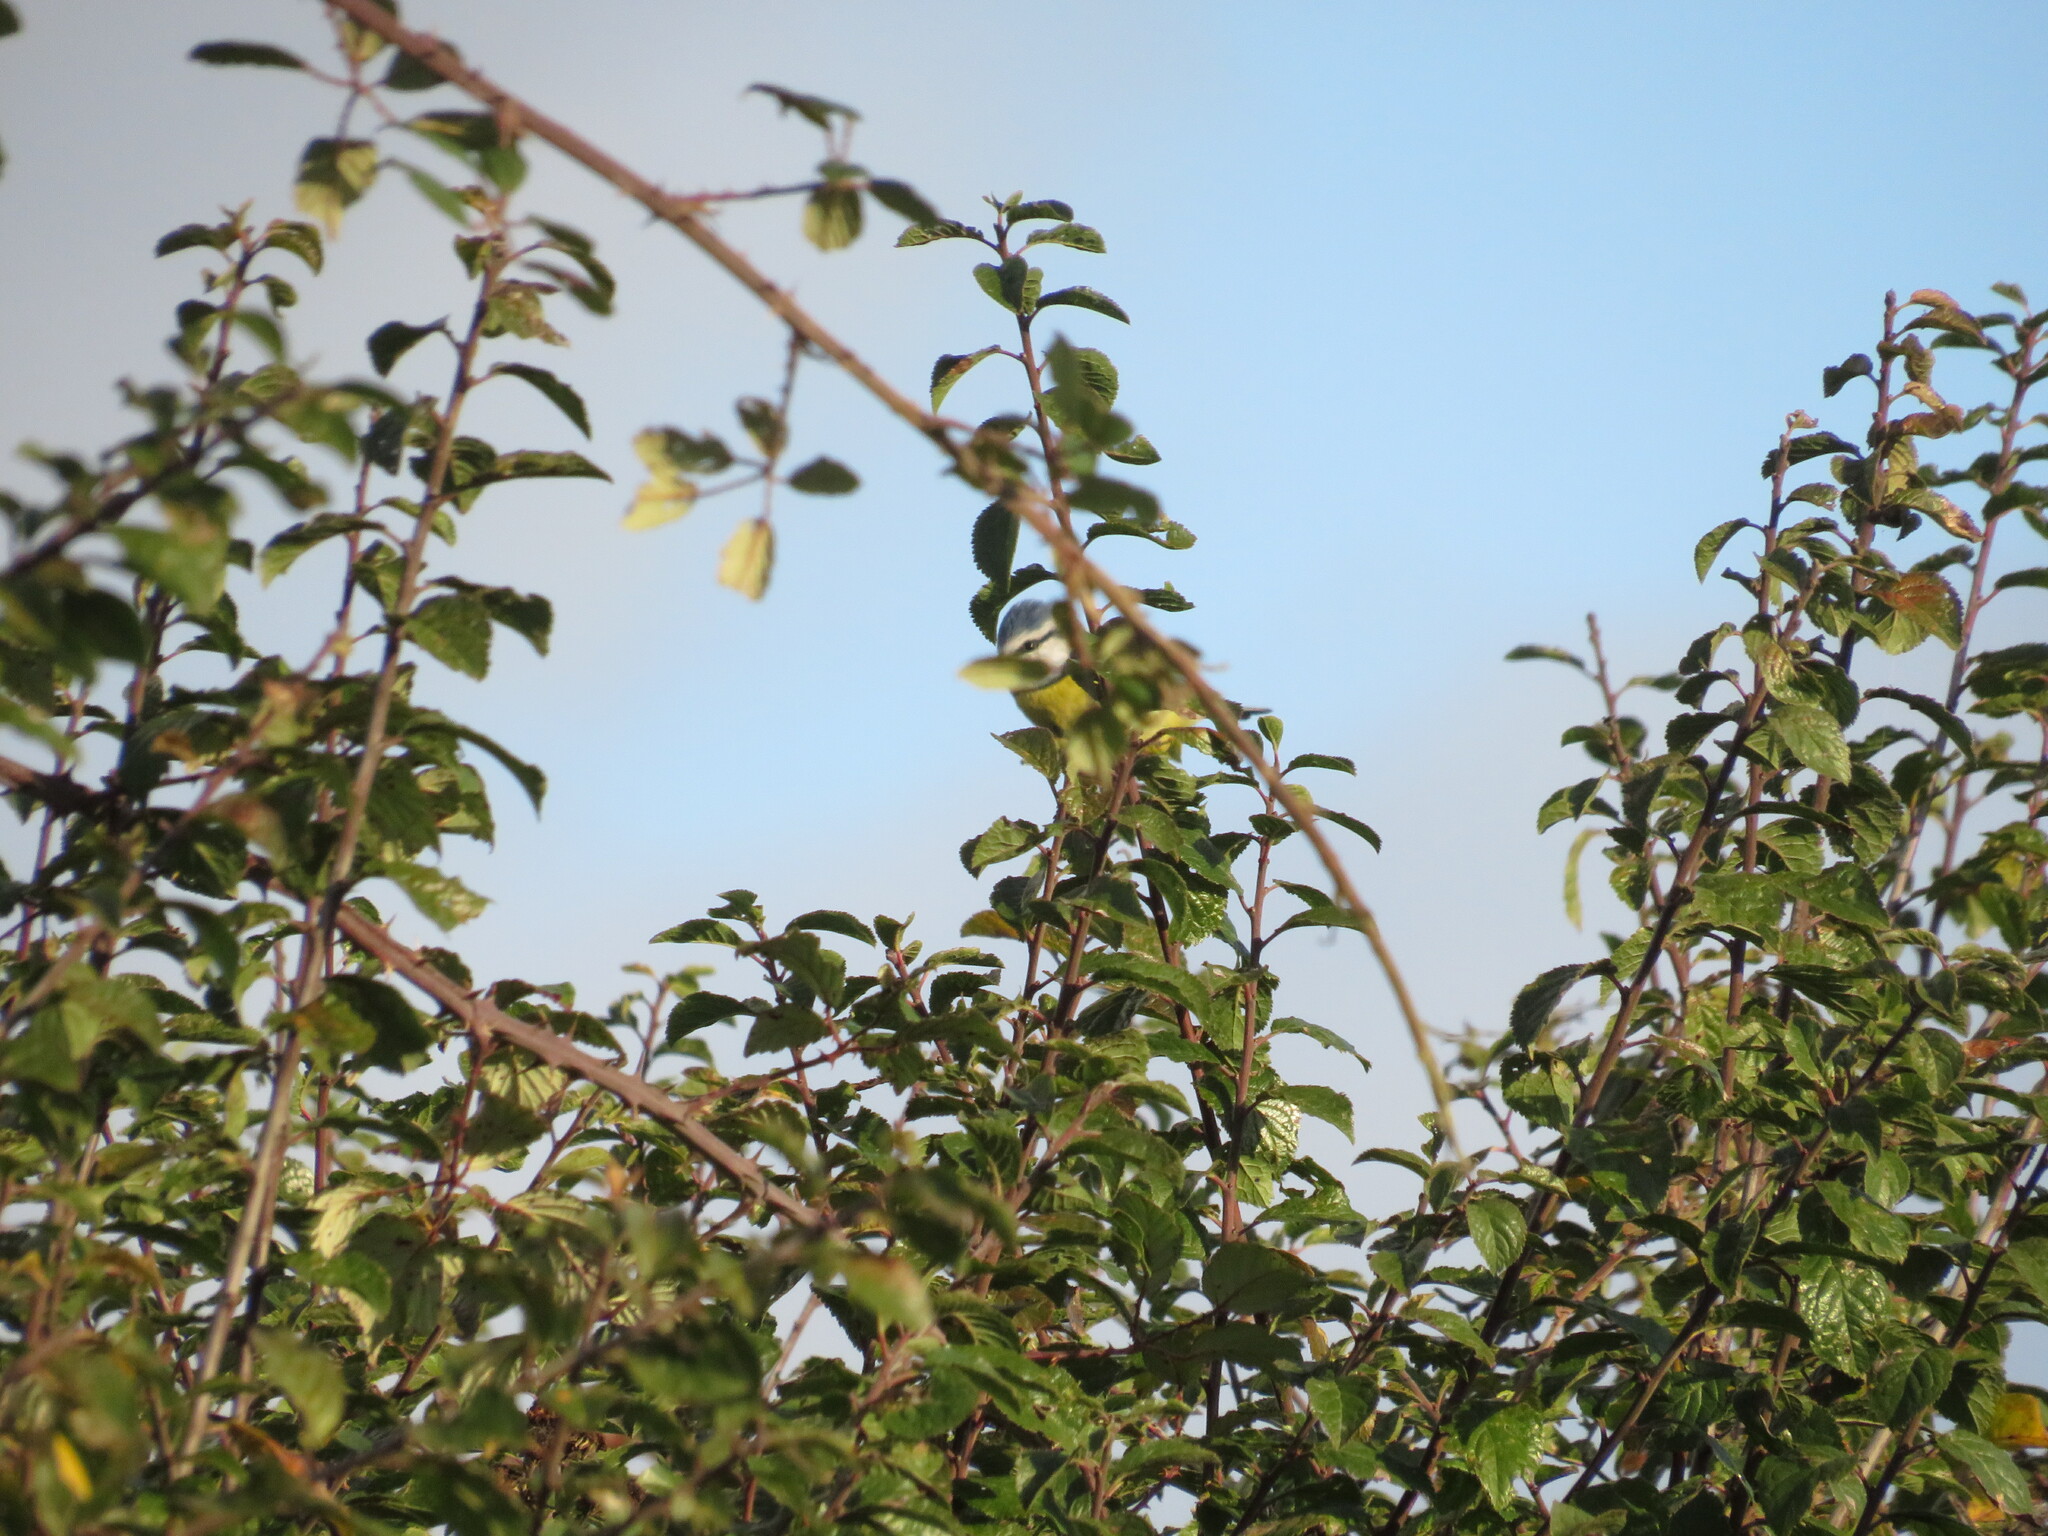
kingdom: Animalia
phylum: Chordata
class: Aves
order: Passeriformes
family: Paridae
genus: Cyanistes
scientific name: Cyanistes caeruleus
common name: Eurasian blue tit
